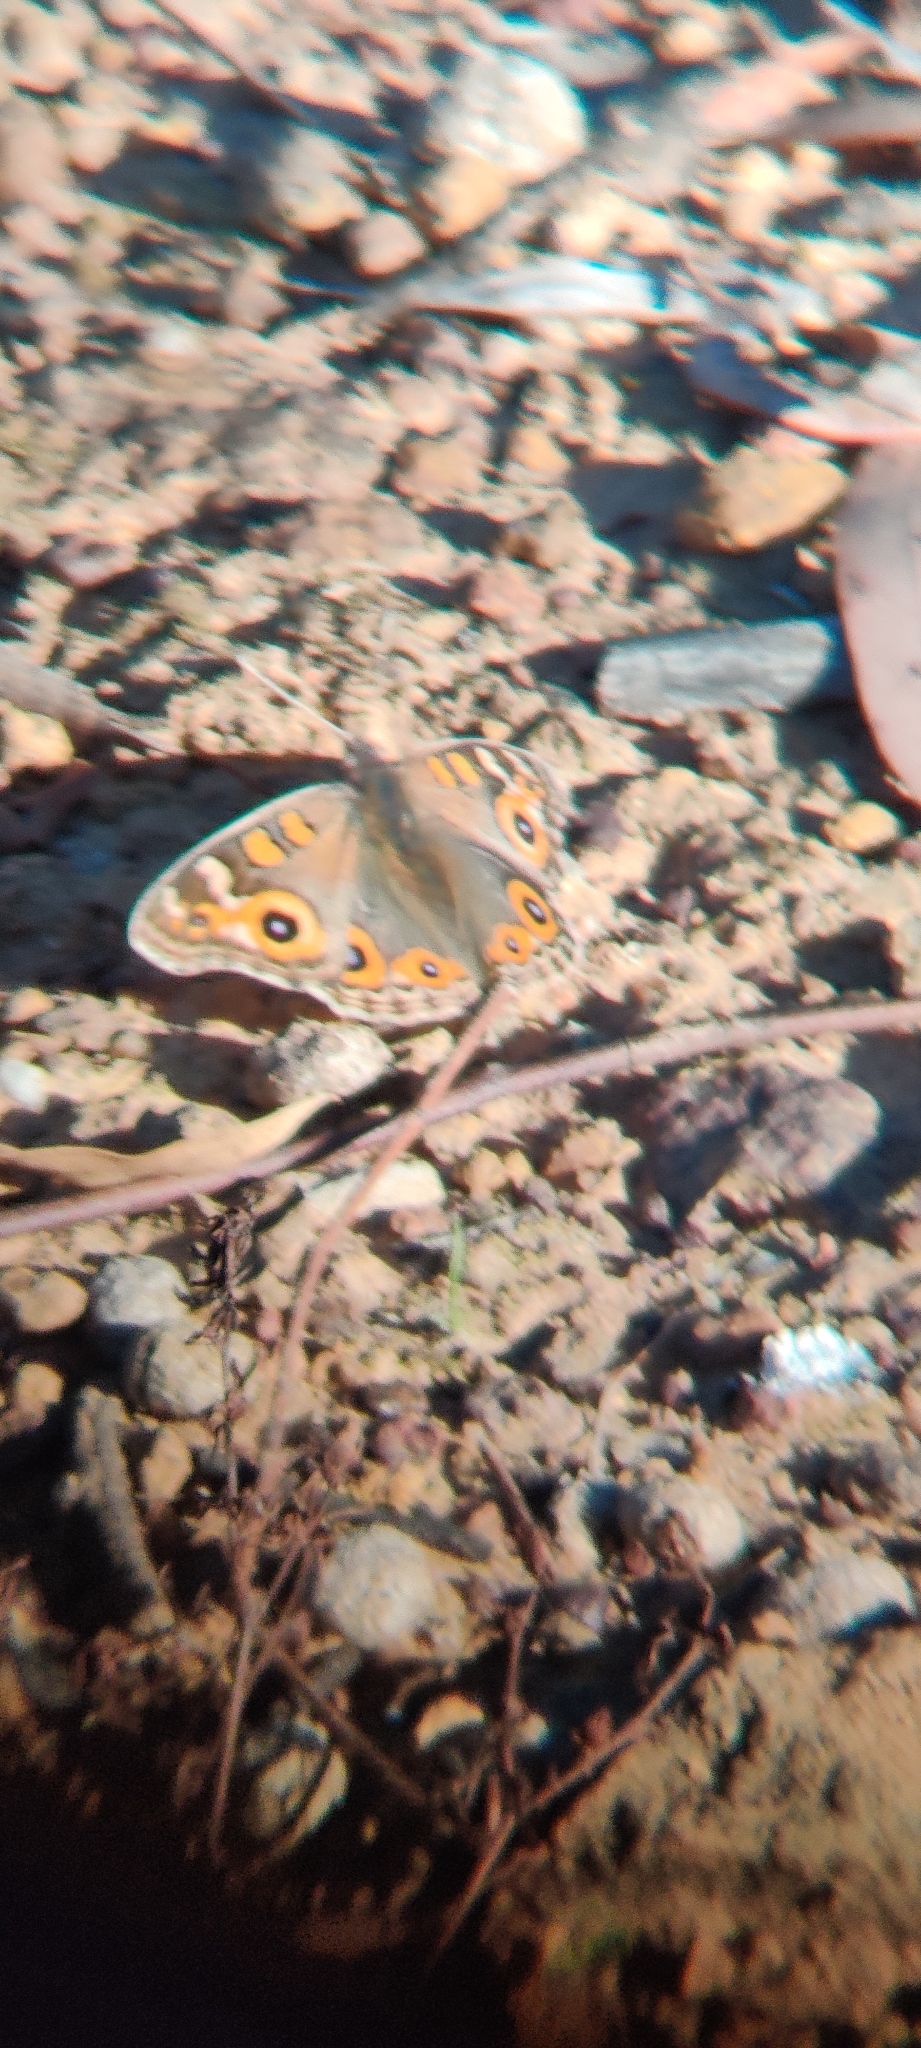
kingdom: Animalia
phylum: Arthropoda
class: Insecta
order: Lepidoptera
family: Nymphalidae
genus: Junonia
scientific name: Junonia villida
